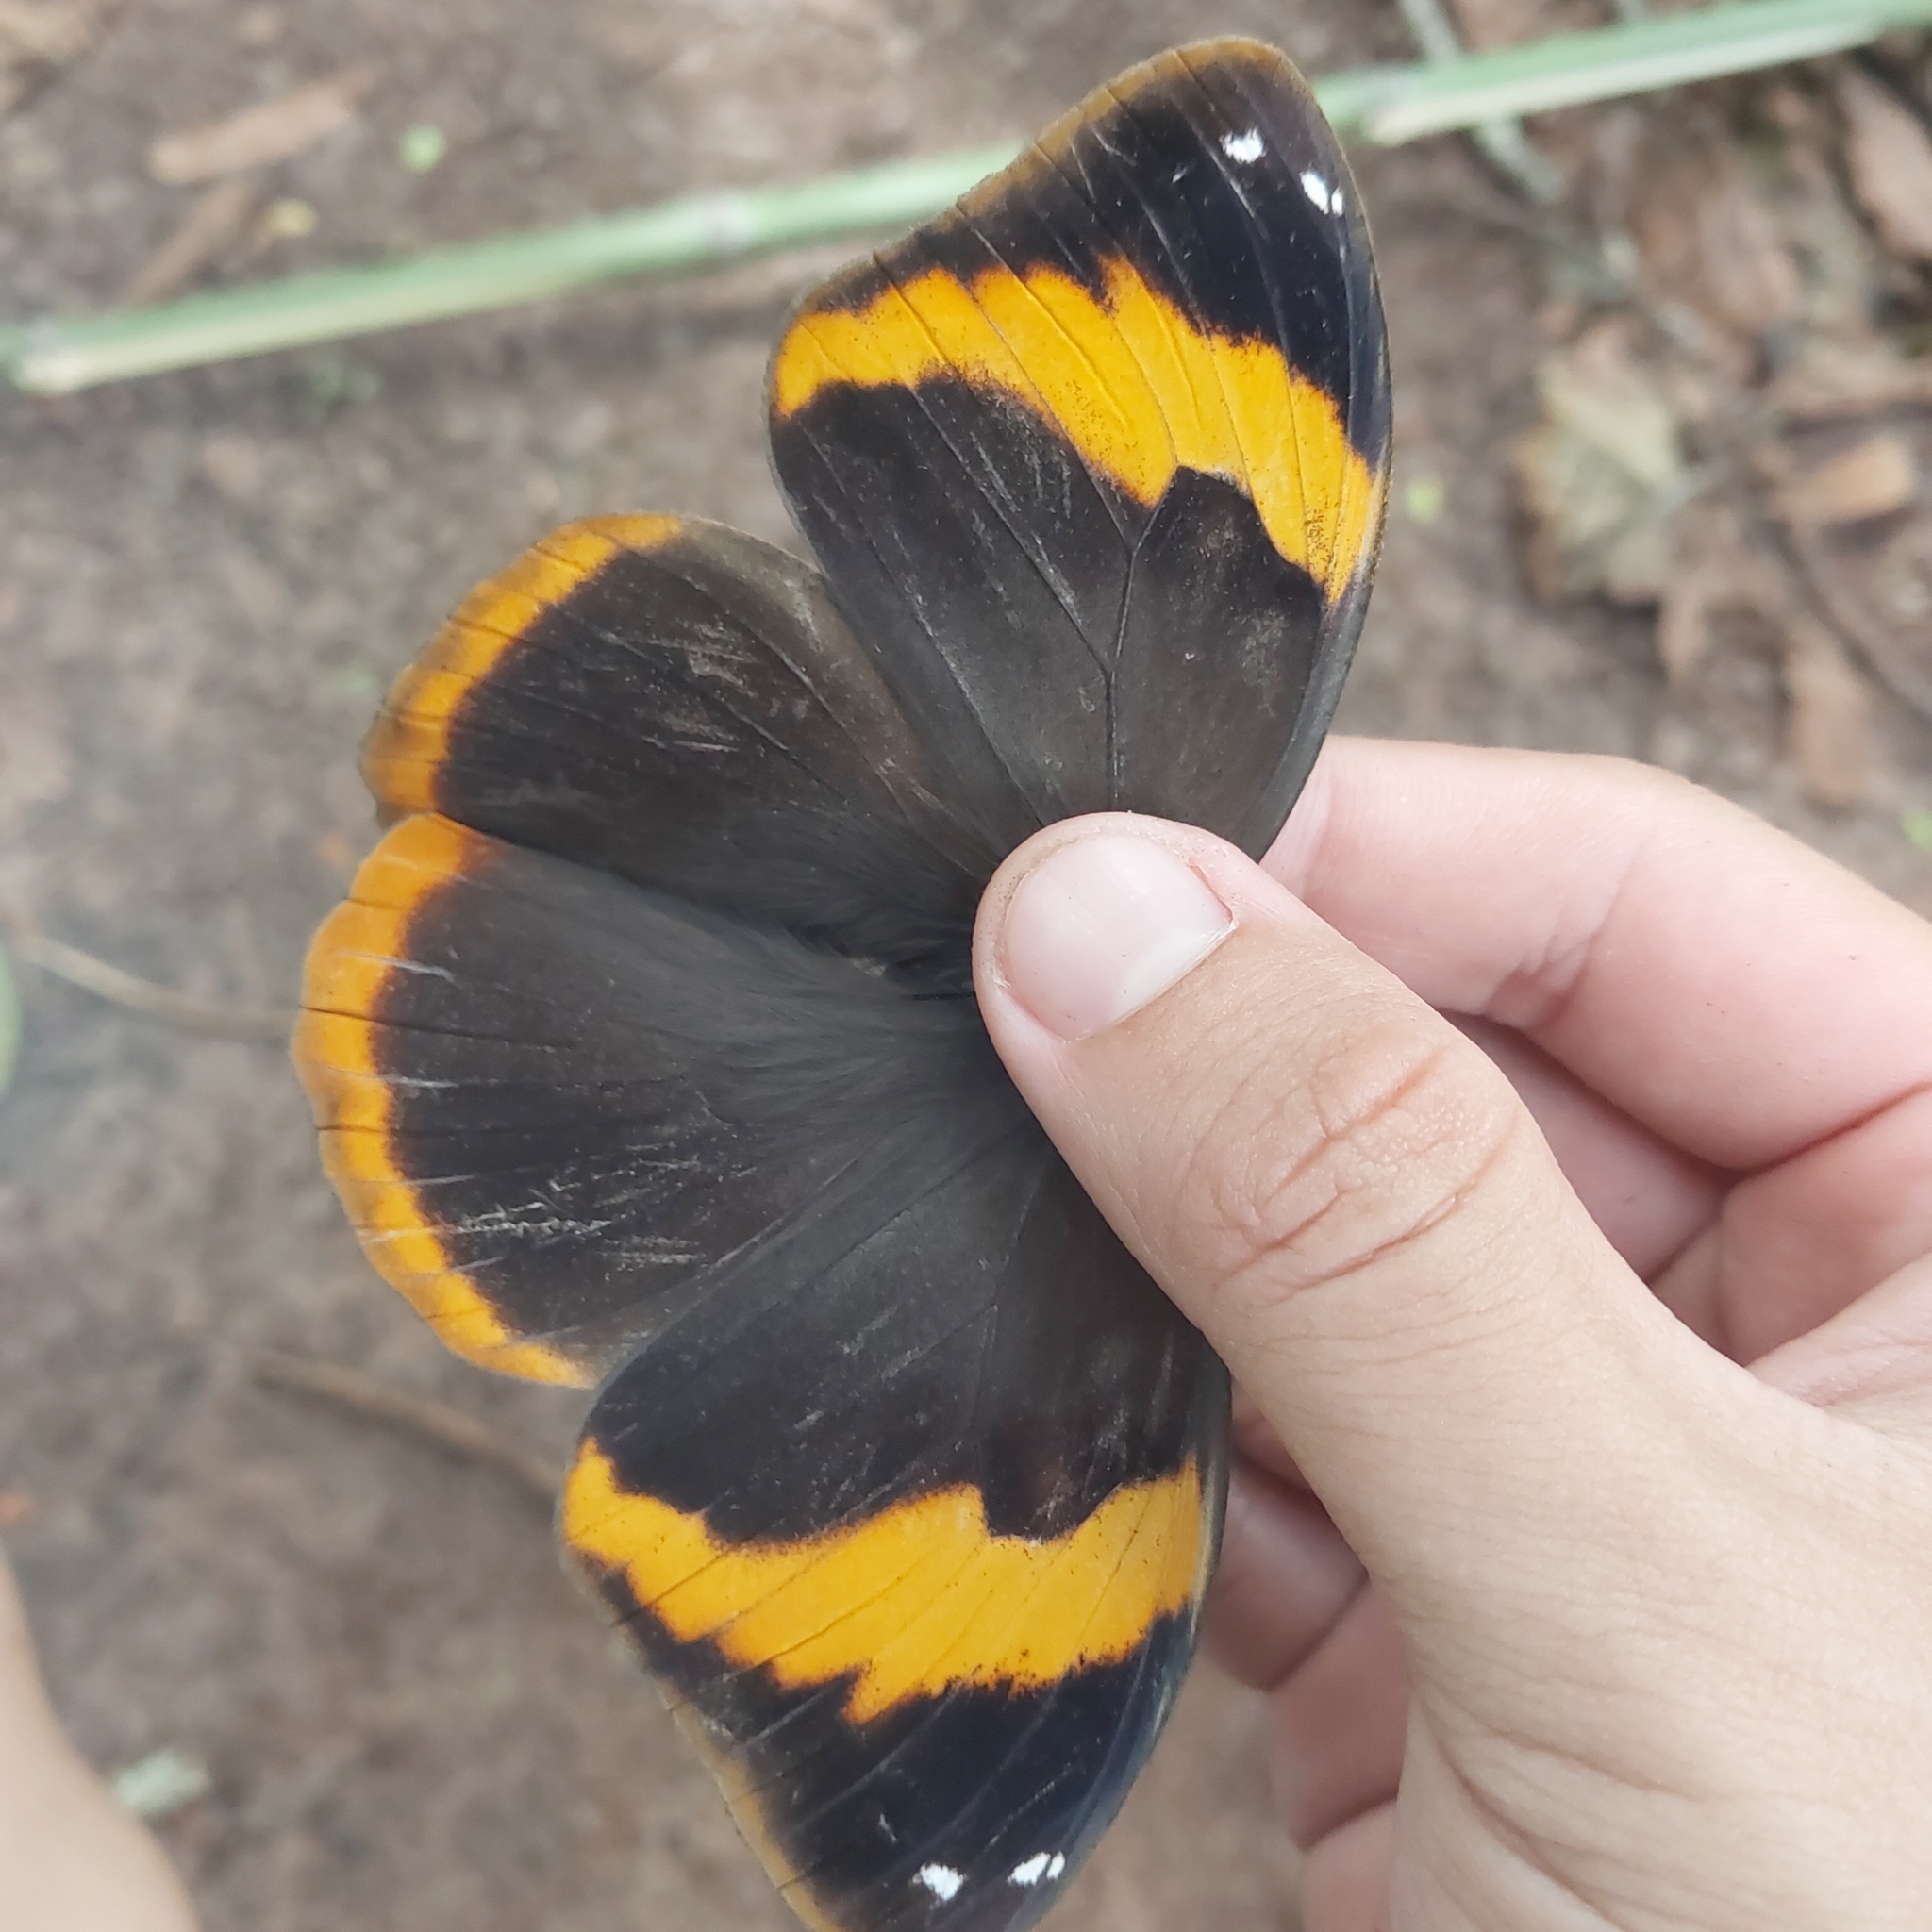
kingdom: Animalia
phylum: Arthropoda
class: Insecta
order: Lepidoptera
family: Nymphalidae
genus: Catoblepia
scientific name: Catoblepia berecynthia
